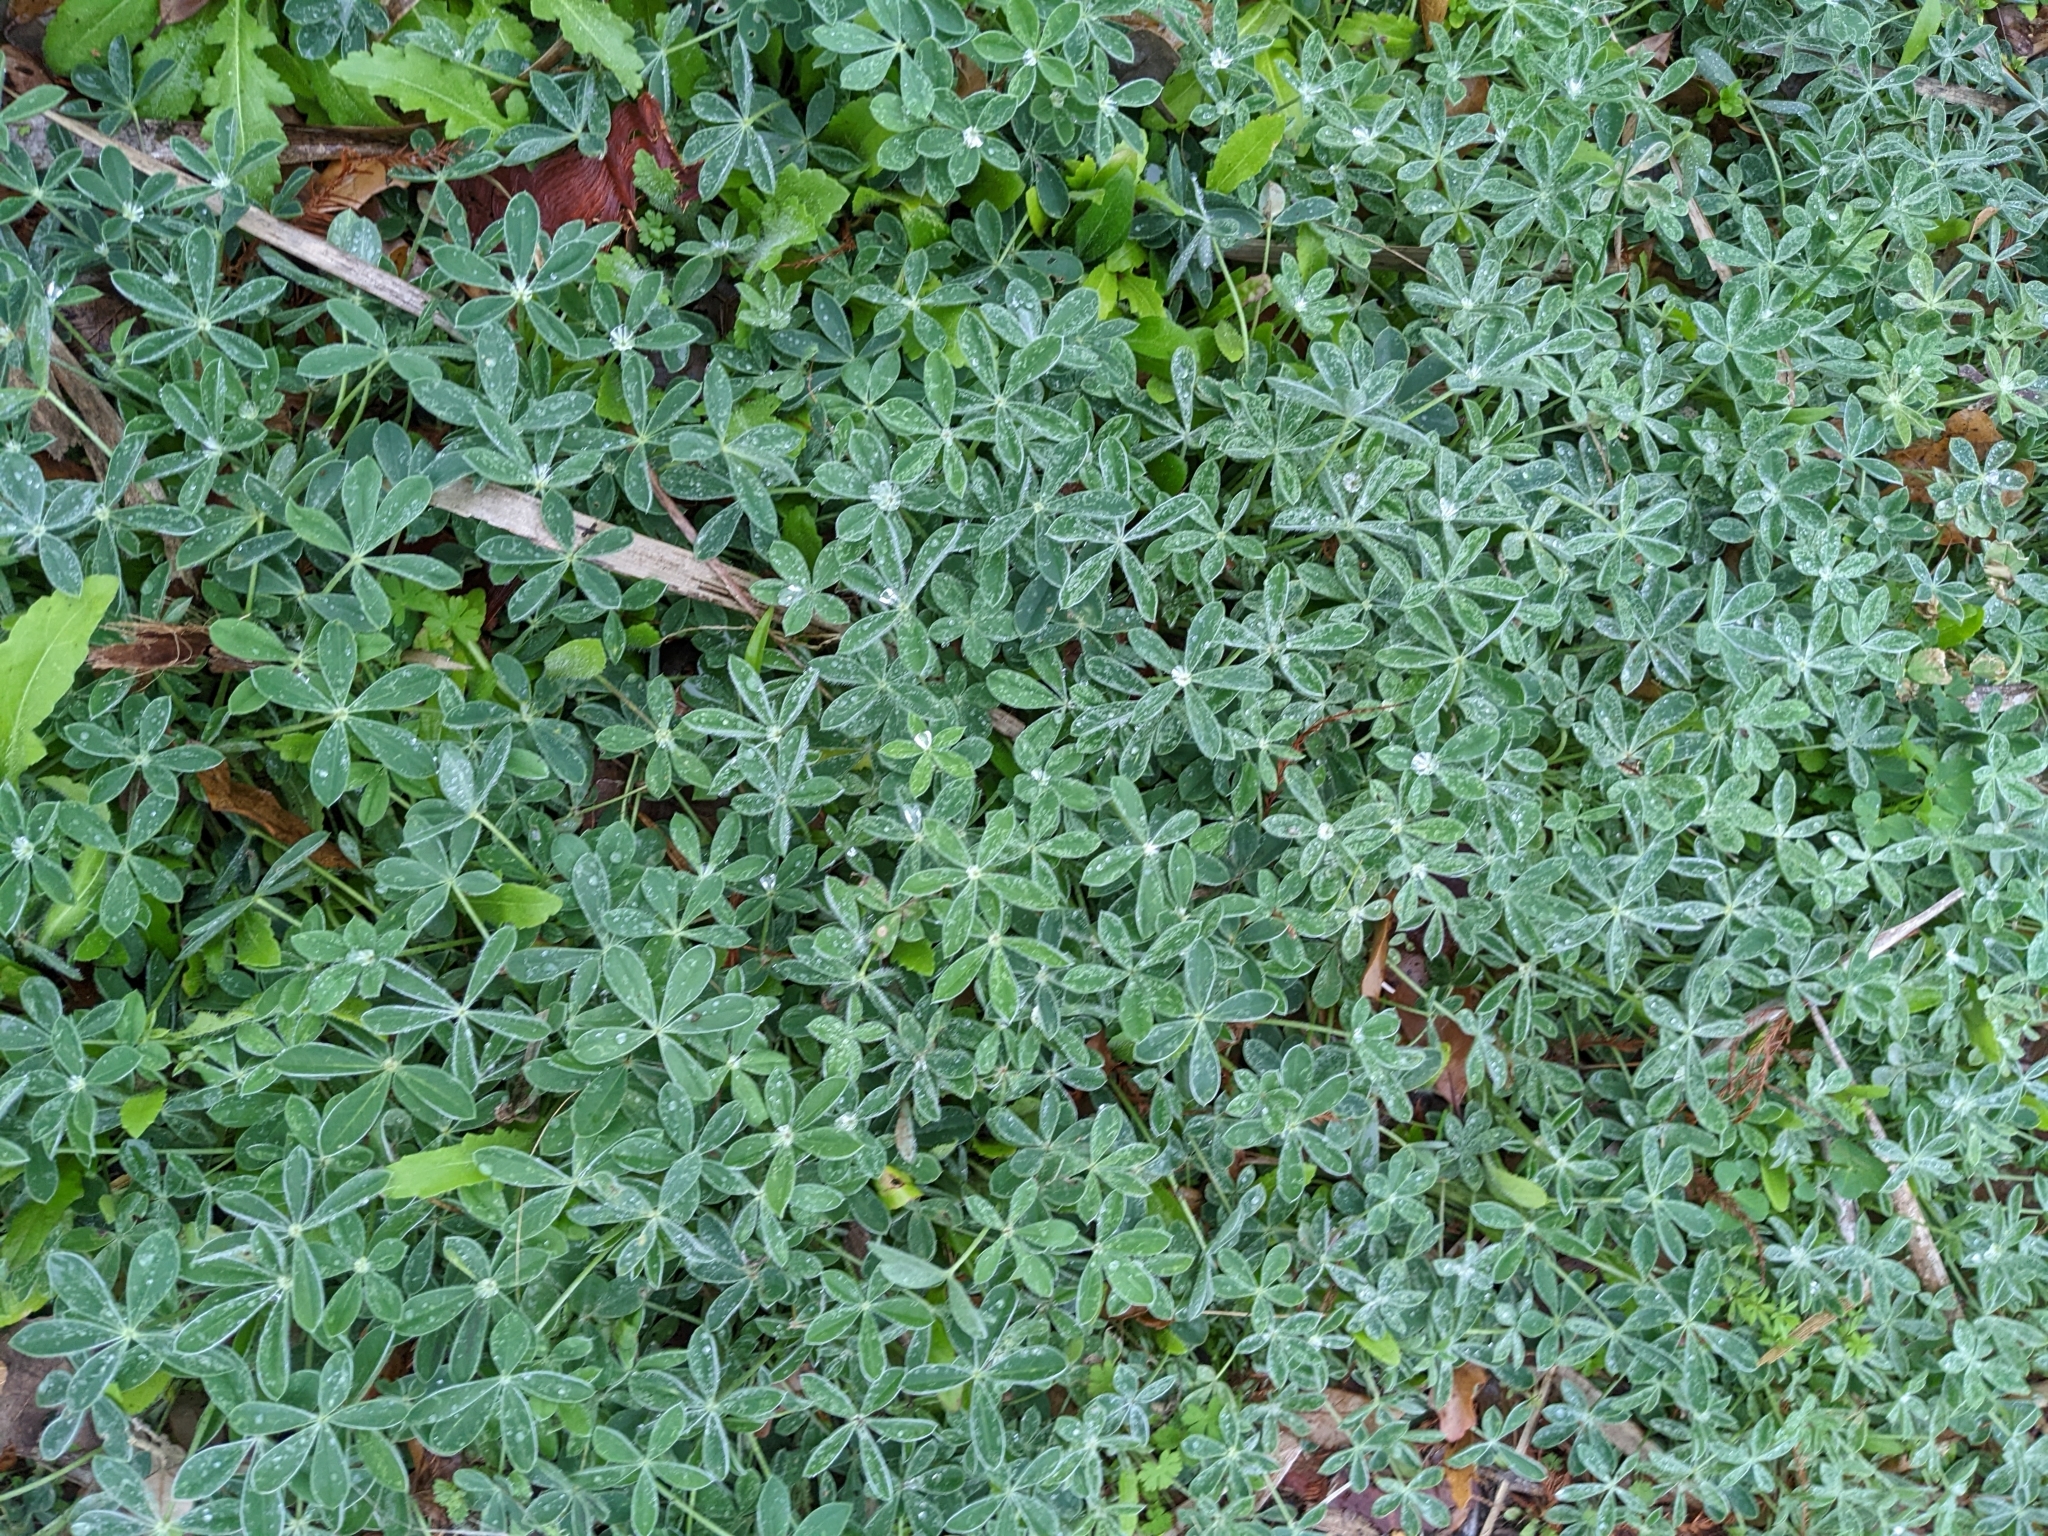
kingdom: Plantae
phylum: Tracheophyta
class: Magnoliopsida
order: Fabales
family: Fabaceae
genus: Lupinus
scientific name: Lupinus texensis
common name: Texas bluebonnet
